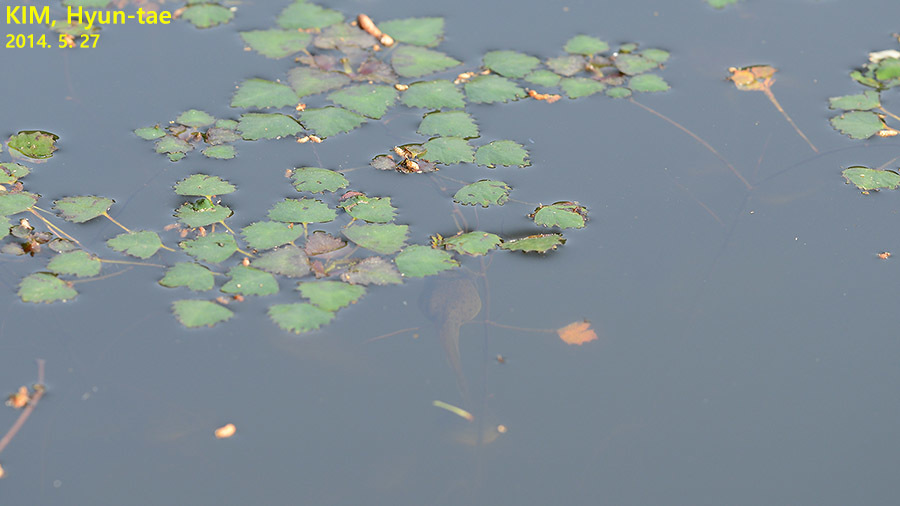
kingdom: Animalia
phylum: Chordata
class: Amphibia
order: Anura
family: Ranidae
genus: Lithobates
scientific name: Lithobates catesbeianus
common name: American bullfrog
